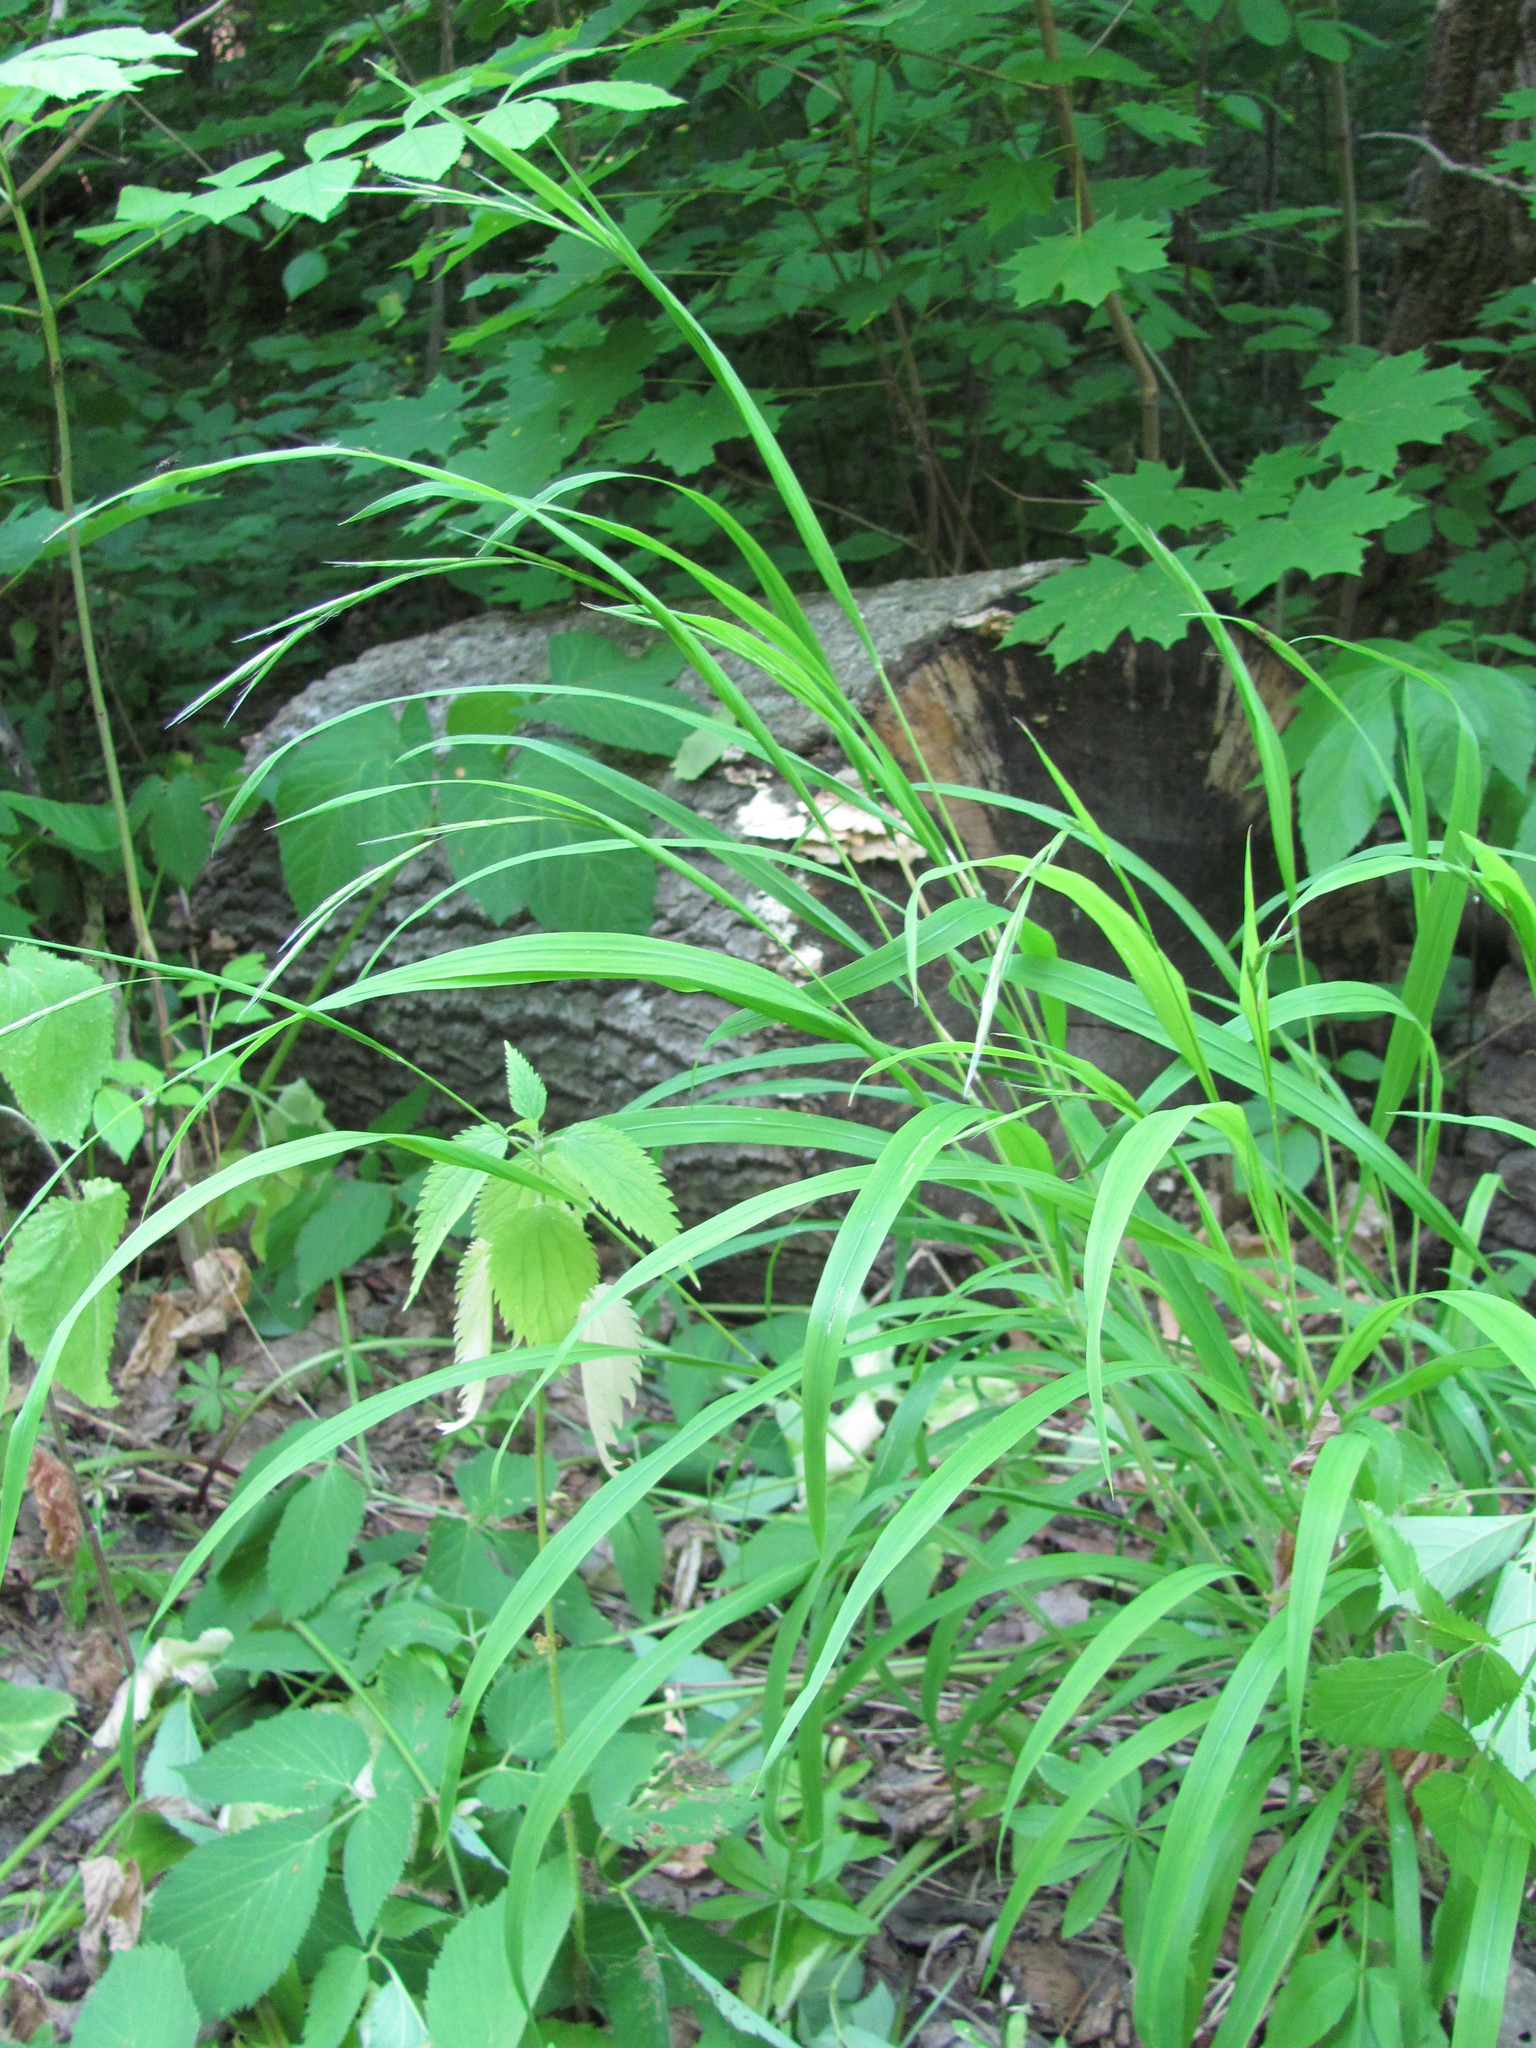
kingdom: Plantae
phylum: Tracheophyta
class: Liliopsida
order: Poales
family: Poaceae
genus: Brachypodium
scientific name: Brachypodium sylvaticum
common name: False-brome
